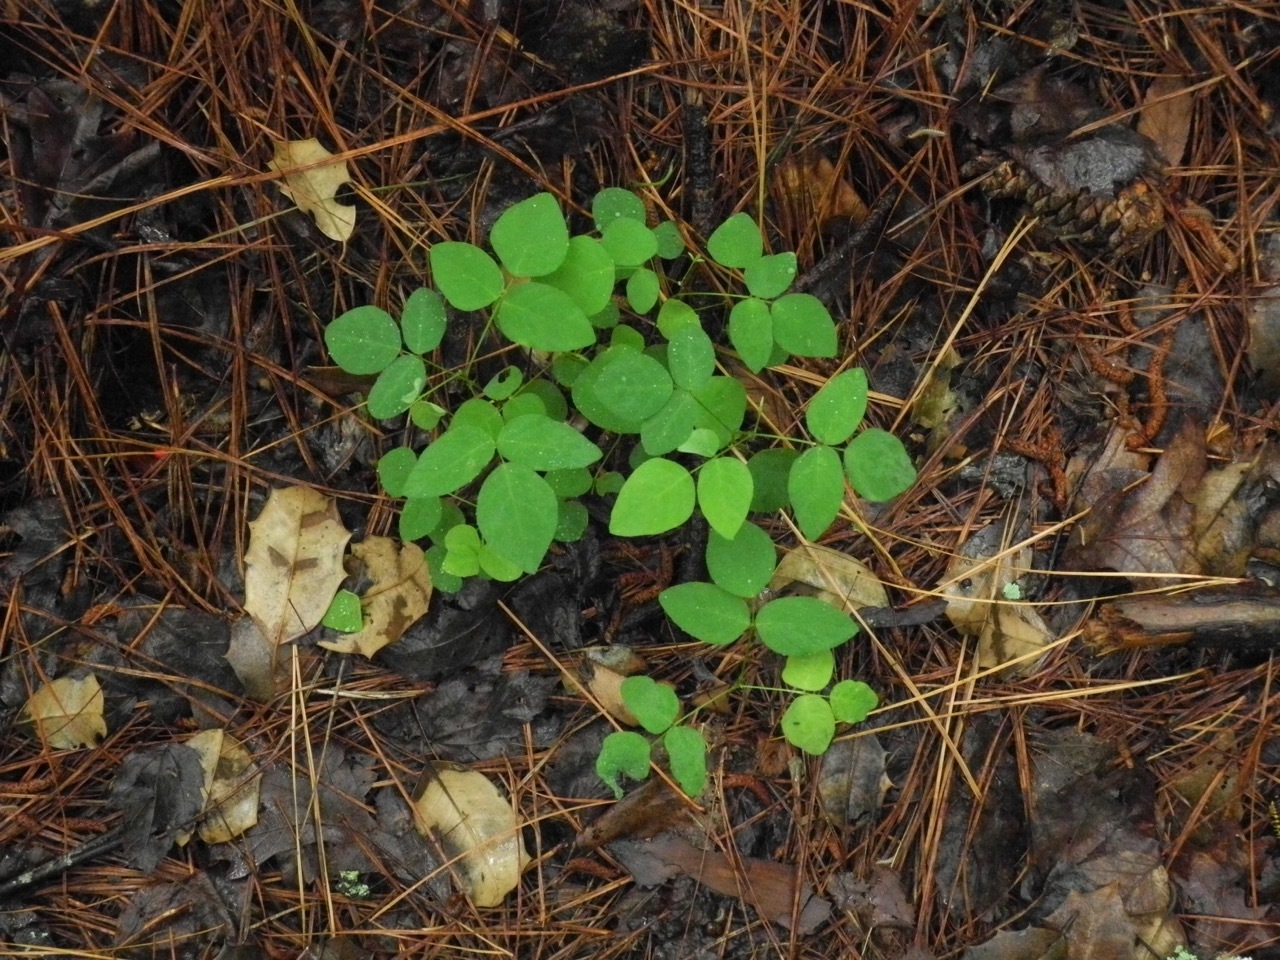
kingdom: Plantae
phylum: Tracheophyta
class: Magnoliopsida
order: Fabales
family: Fabaceae
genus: Amphicarpaea
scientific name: Amphicarpaea bracteata
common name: American hog peanut
